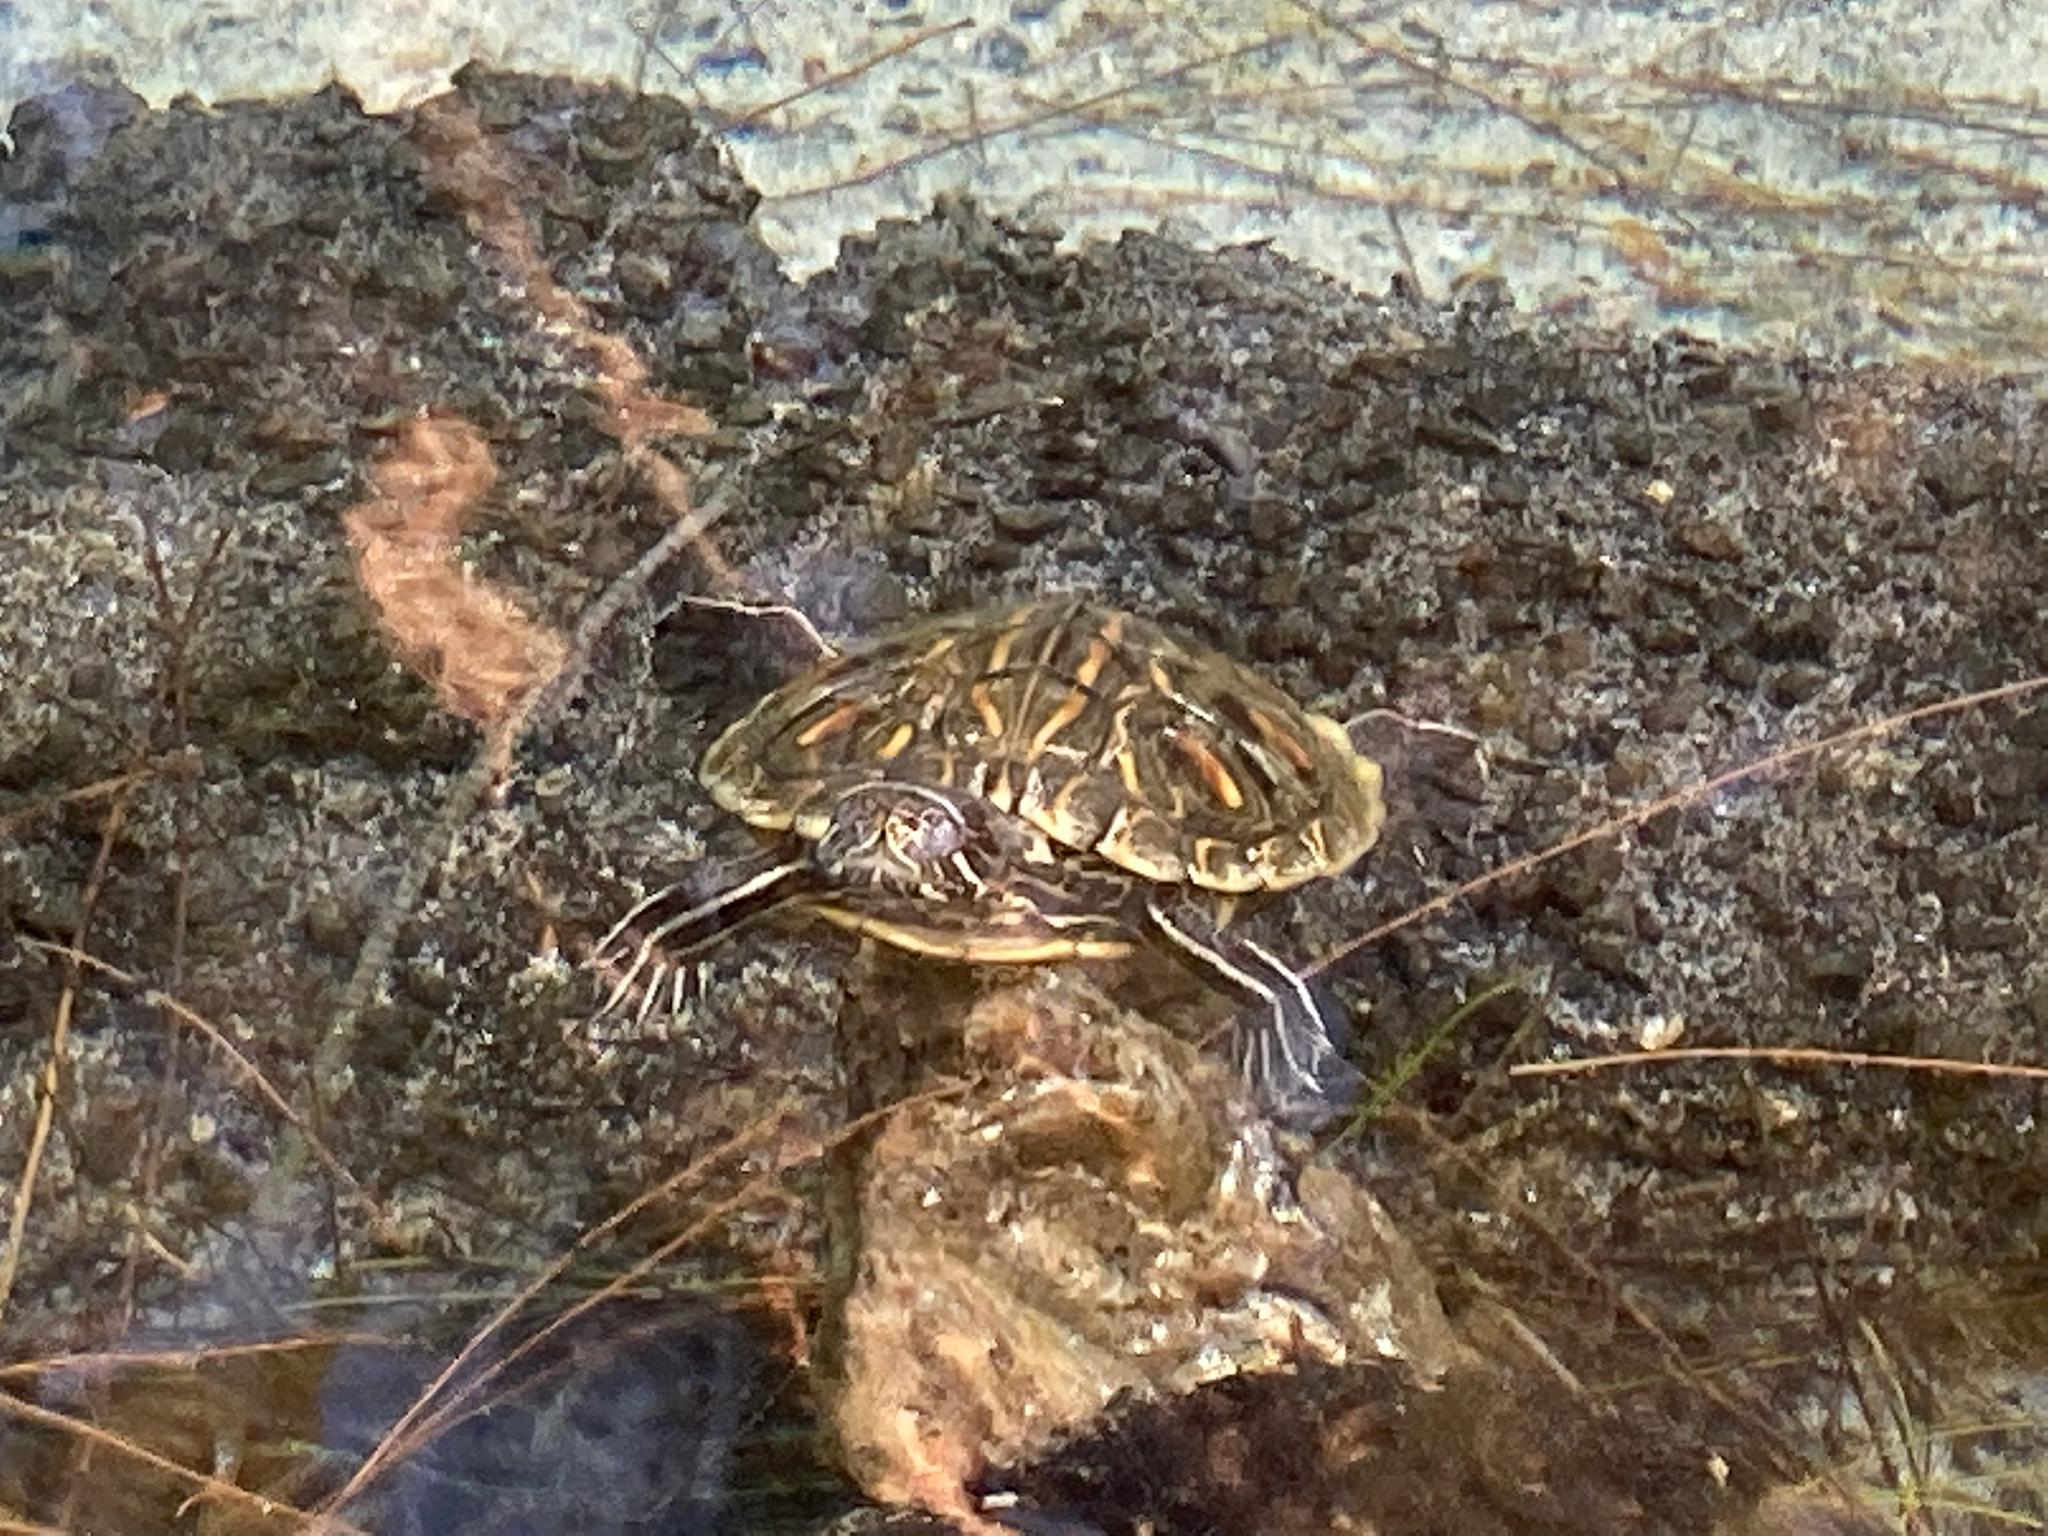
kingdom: Animalia
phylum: Chordata
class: Testudines
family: Emydidae
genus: Trachemys
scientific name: Trachemys scripta
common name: Slider
